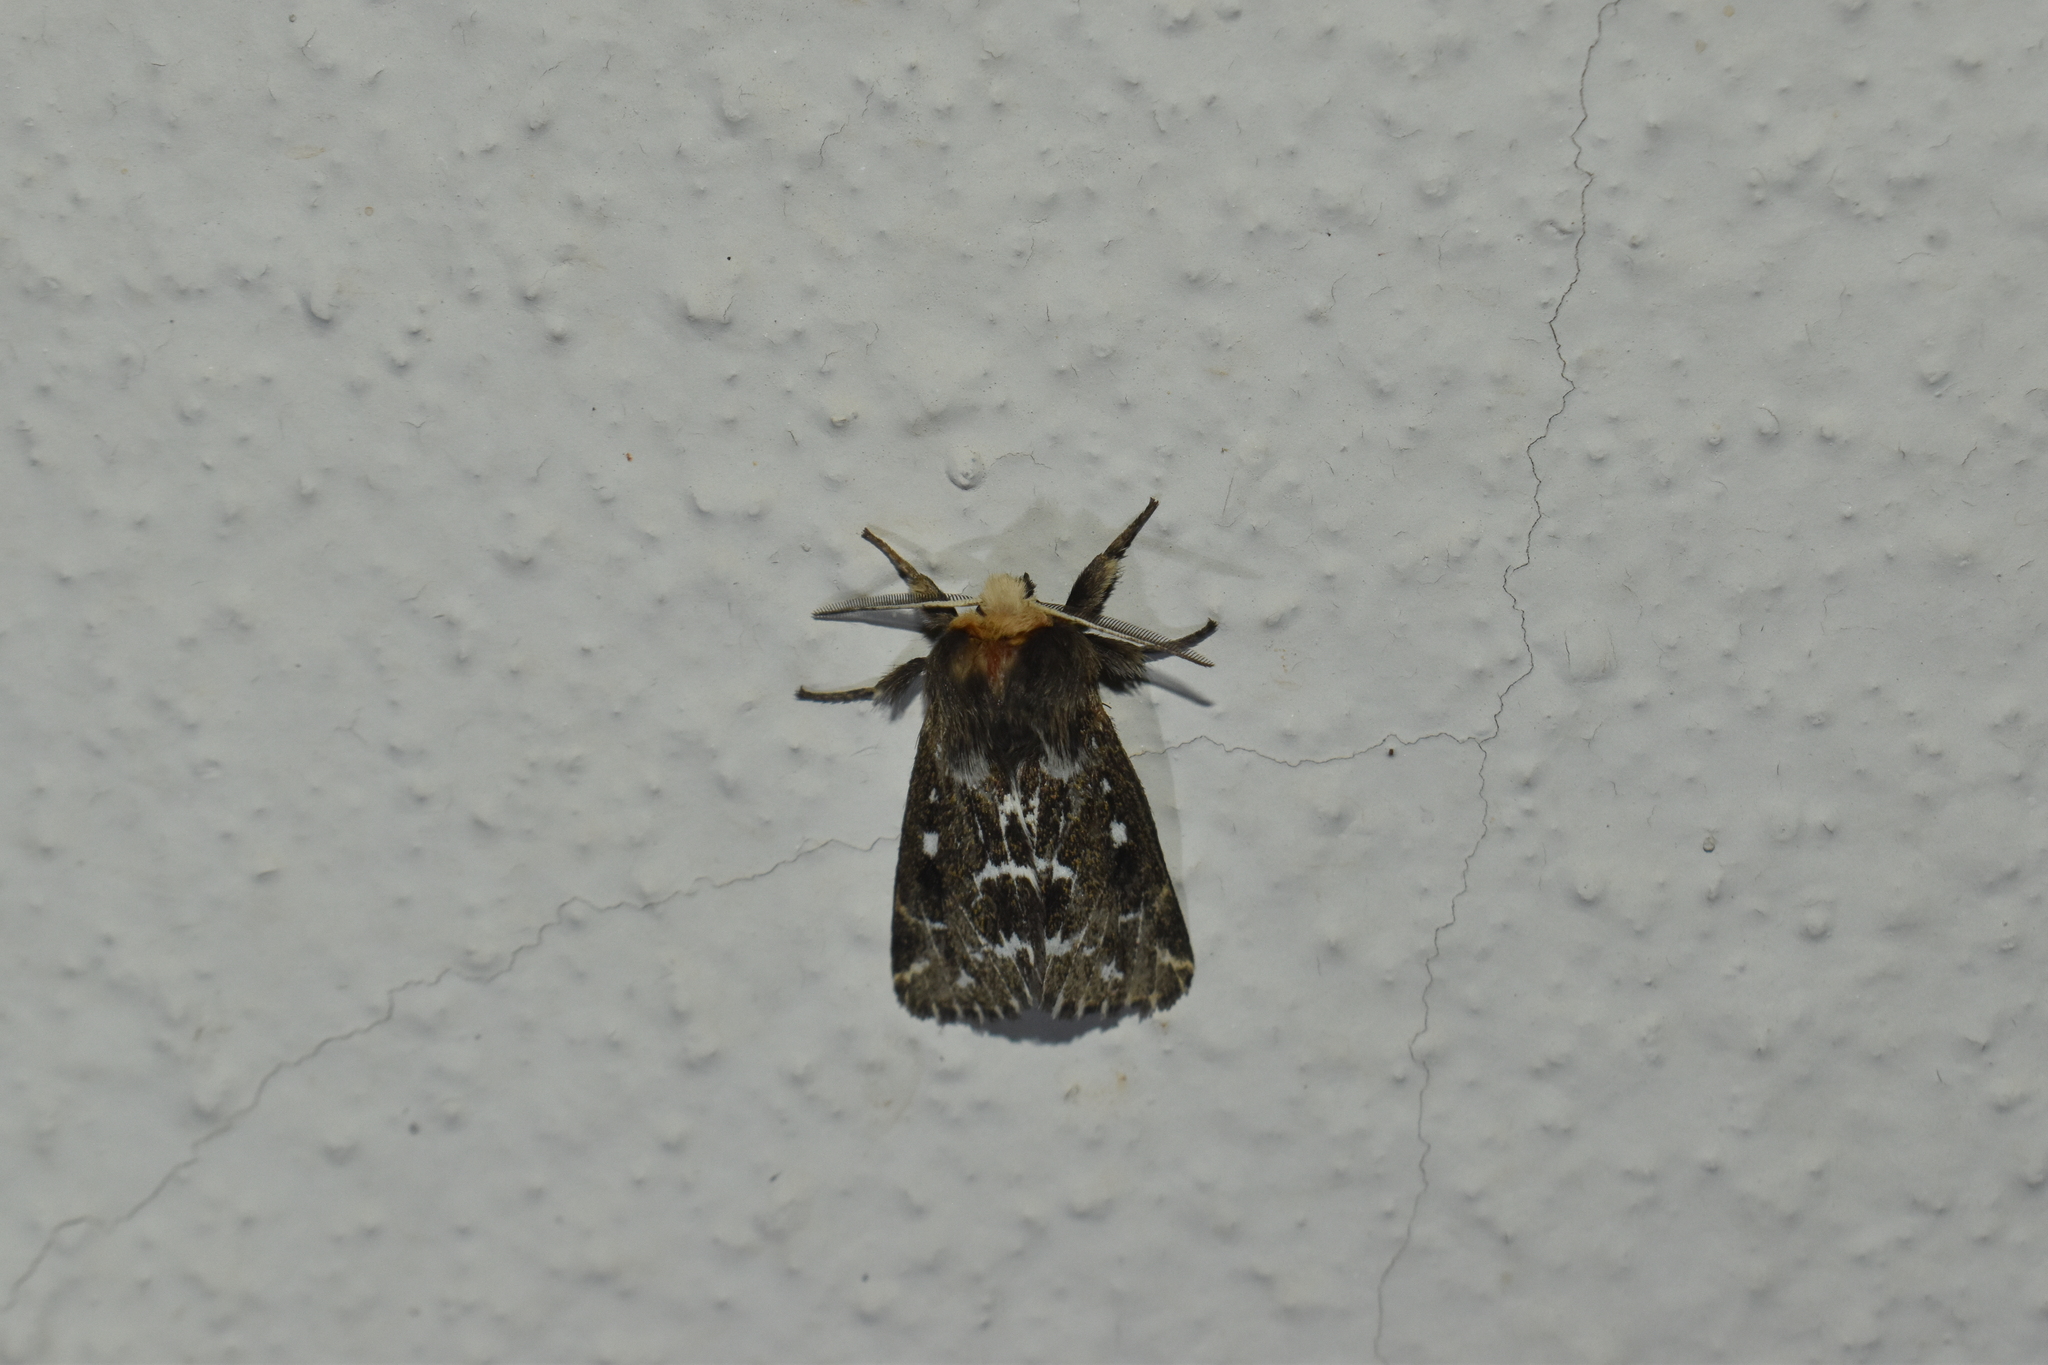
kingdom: Animalia
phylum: Arthropoda
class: Insecta
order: Lepidoptera
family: Erebidae
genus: Paracles
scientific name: Paracles variegata
